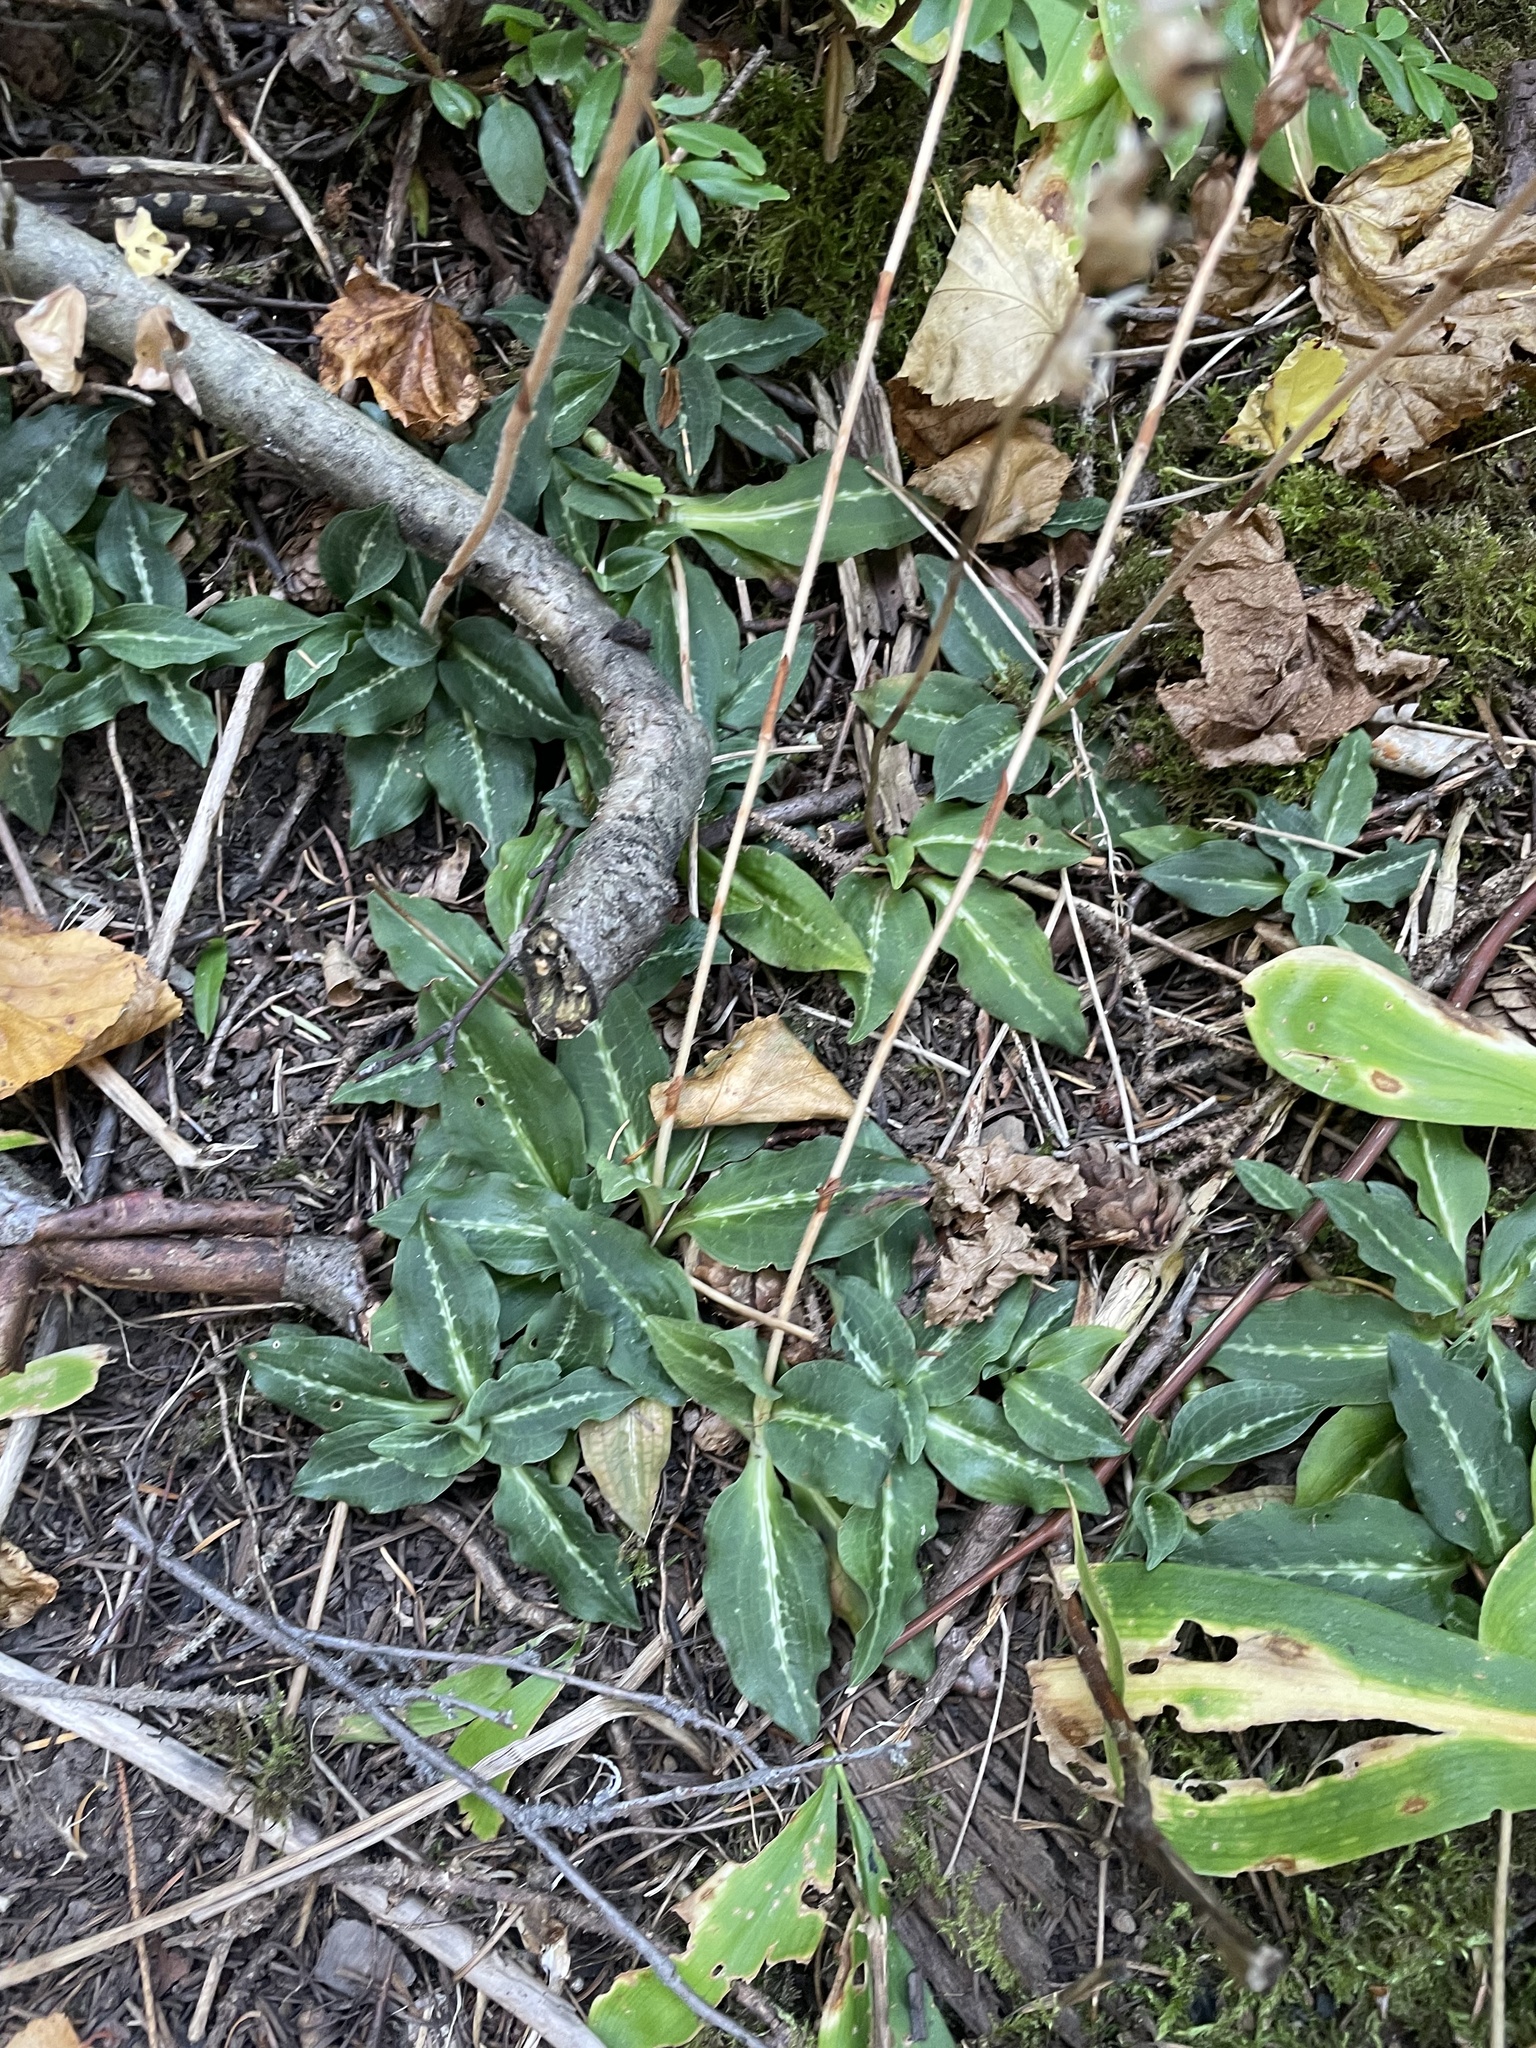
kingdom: Plantae
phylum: Tracheophyta
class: Liliopsida
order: Asparagales
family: Orchidaceae
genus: Goodyera
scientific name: Goodyera oblongifolia
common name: Giant rattlesnake-plantain
